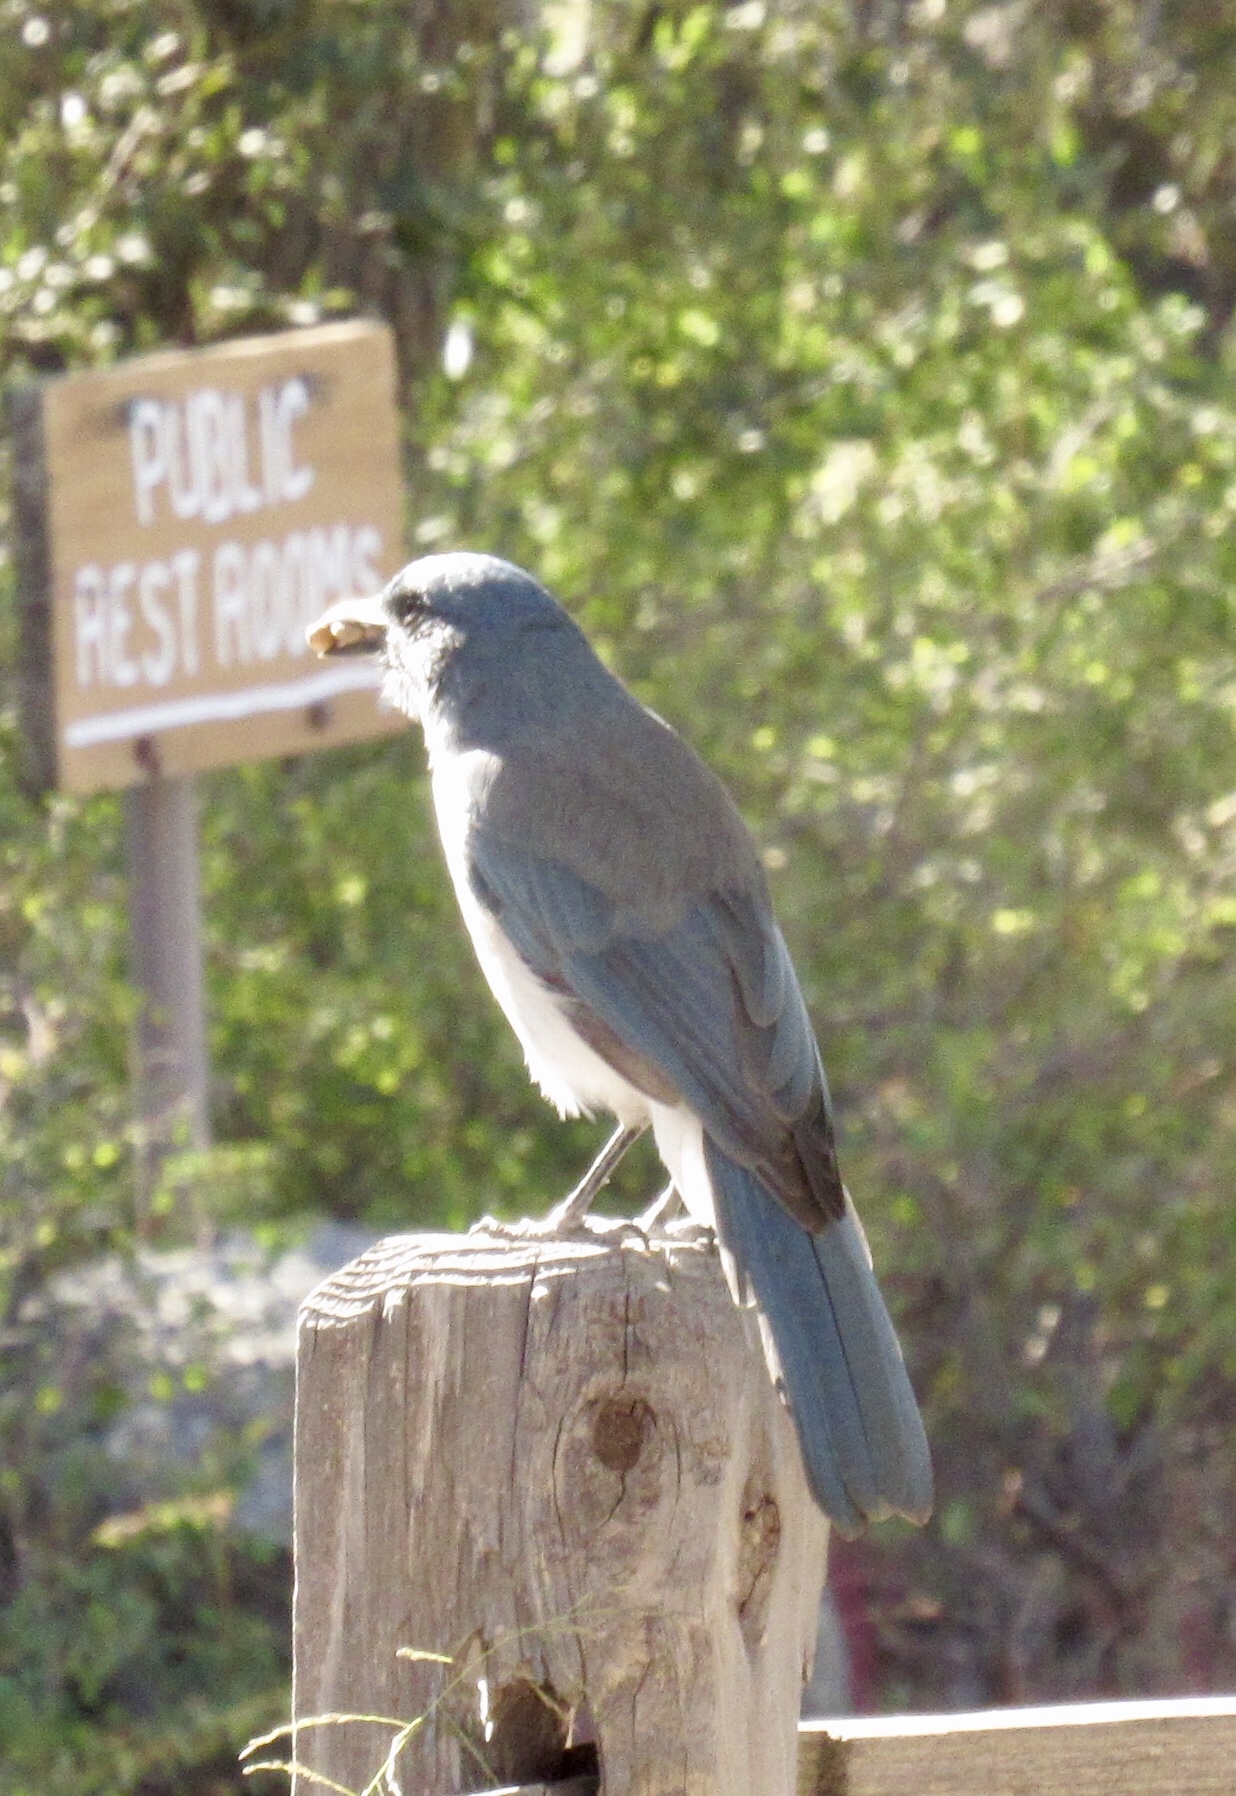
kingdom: Animalia
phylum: Chordata
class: Aves
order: Passeriformes
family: Corvidae
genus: Aphelocoma
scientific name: Aphelocoma woodhouseii
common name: Woodhouse's scrub-jay
